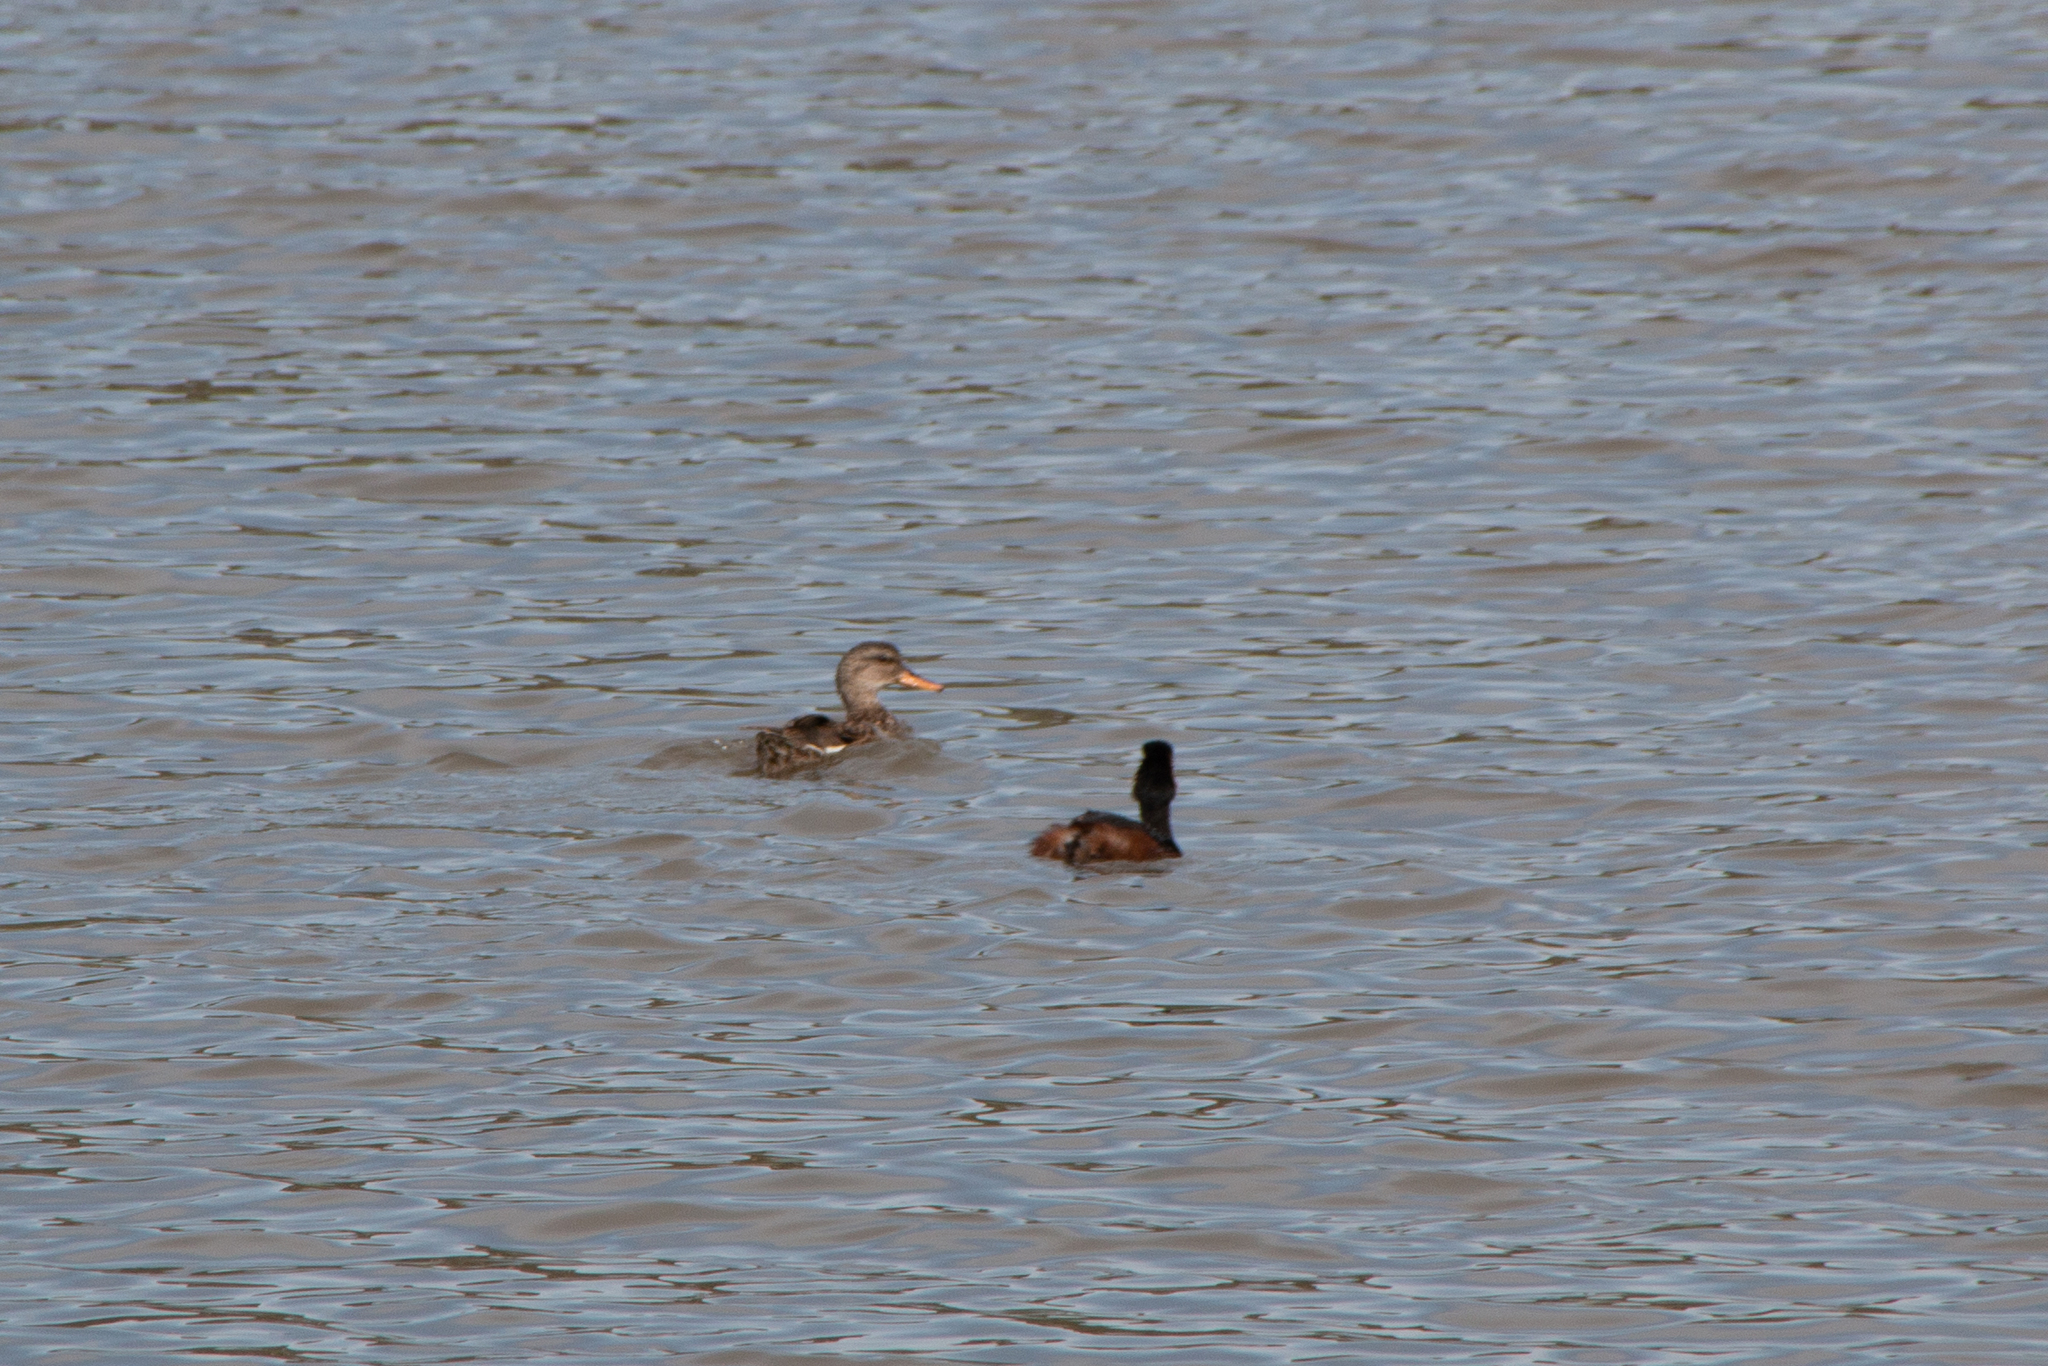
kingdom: Animalia
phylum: Chordata
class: Aves
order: Anseriformes
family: Anatidae
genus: Mareca
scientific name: Mareca strepera
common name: Gadwall
